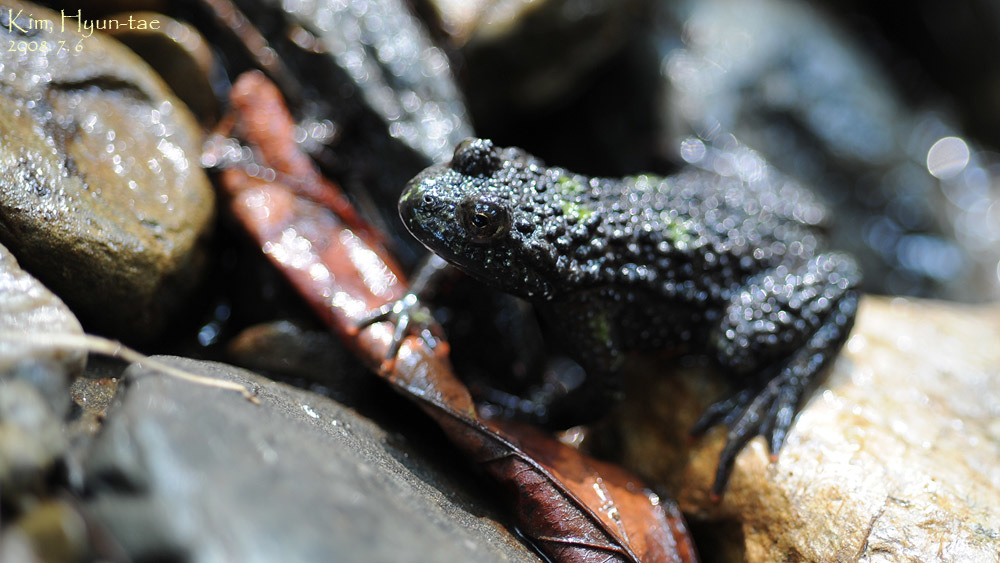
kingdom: Animalia
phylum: Chordata
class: Amphibia
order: Anura
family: Bombinatoridae
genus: Bombina
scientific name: Bombina orientalis
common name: Oriental firebelly toad
